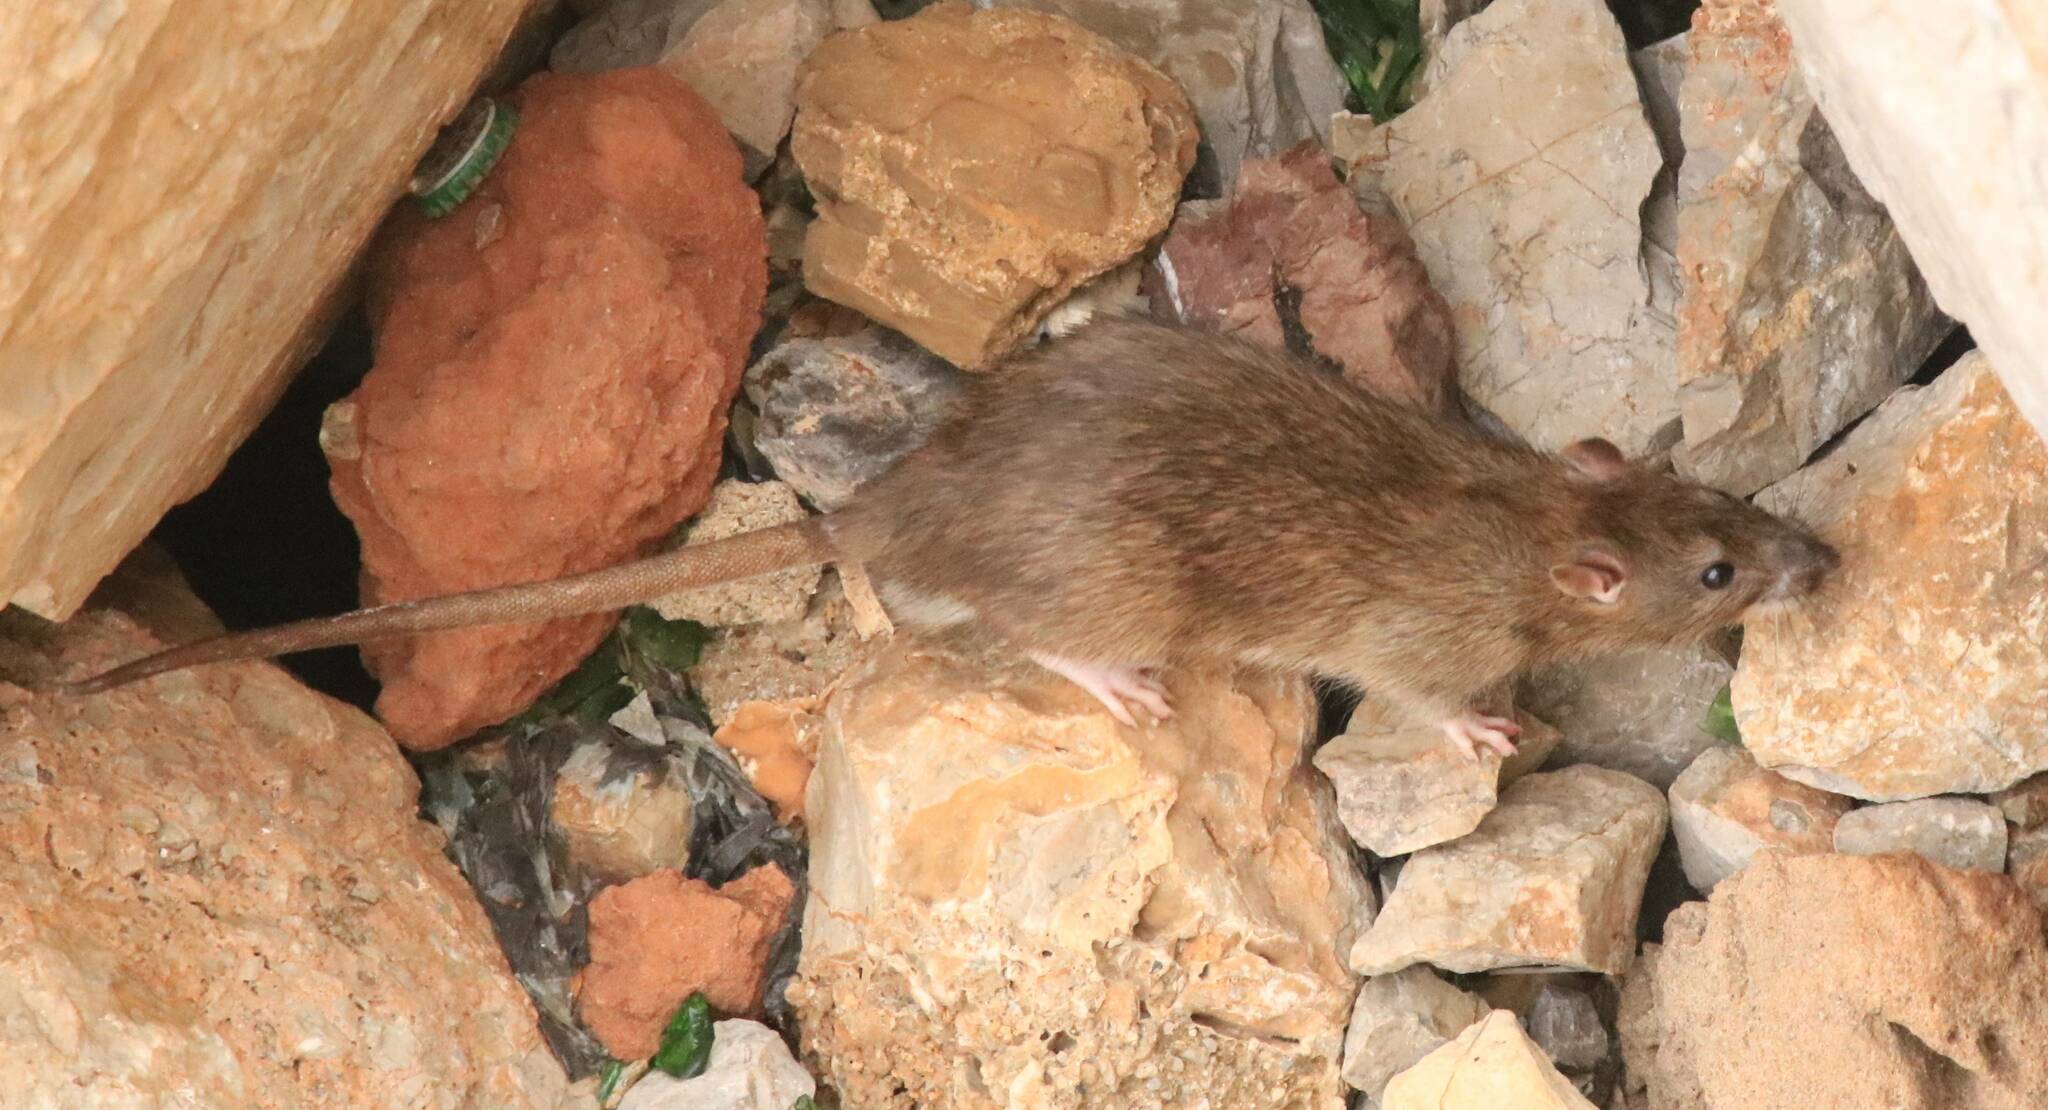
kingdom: Animalia
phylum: Chordata
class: Mammalia
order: Rodentia
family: Muridae
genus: Rattus
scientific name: Rattus rattus
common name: Black rat
